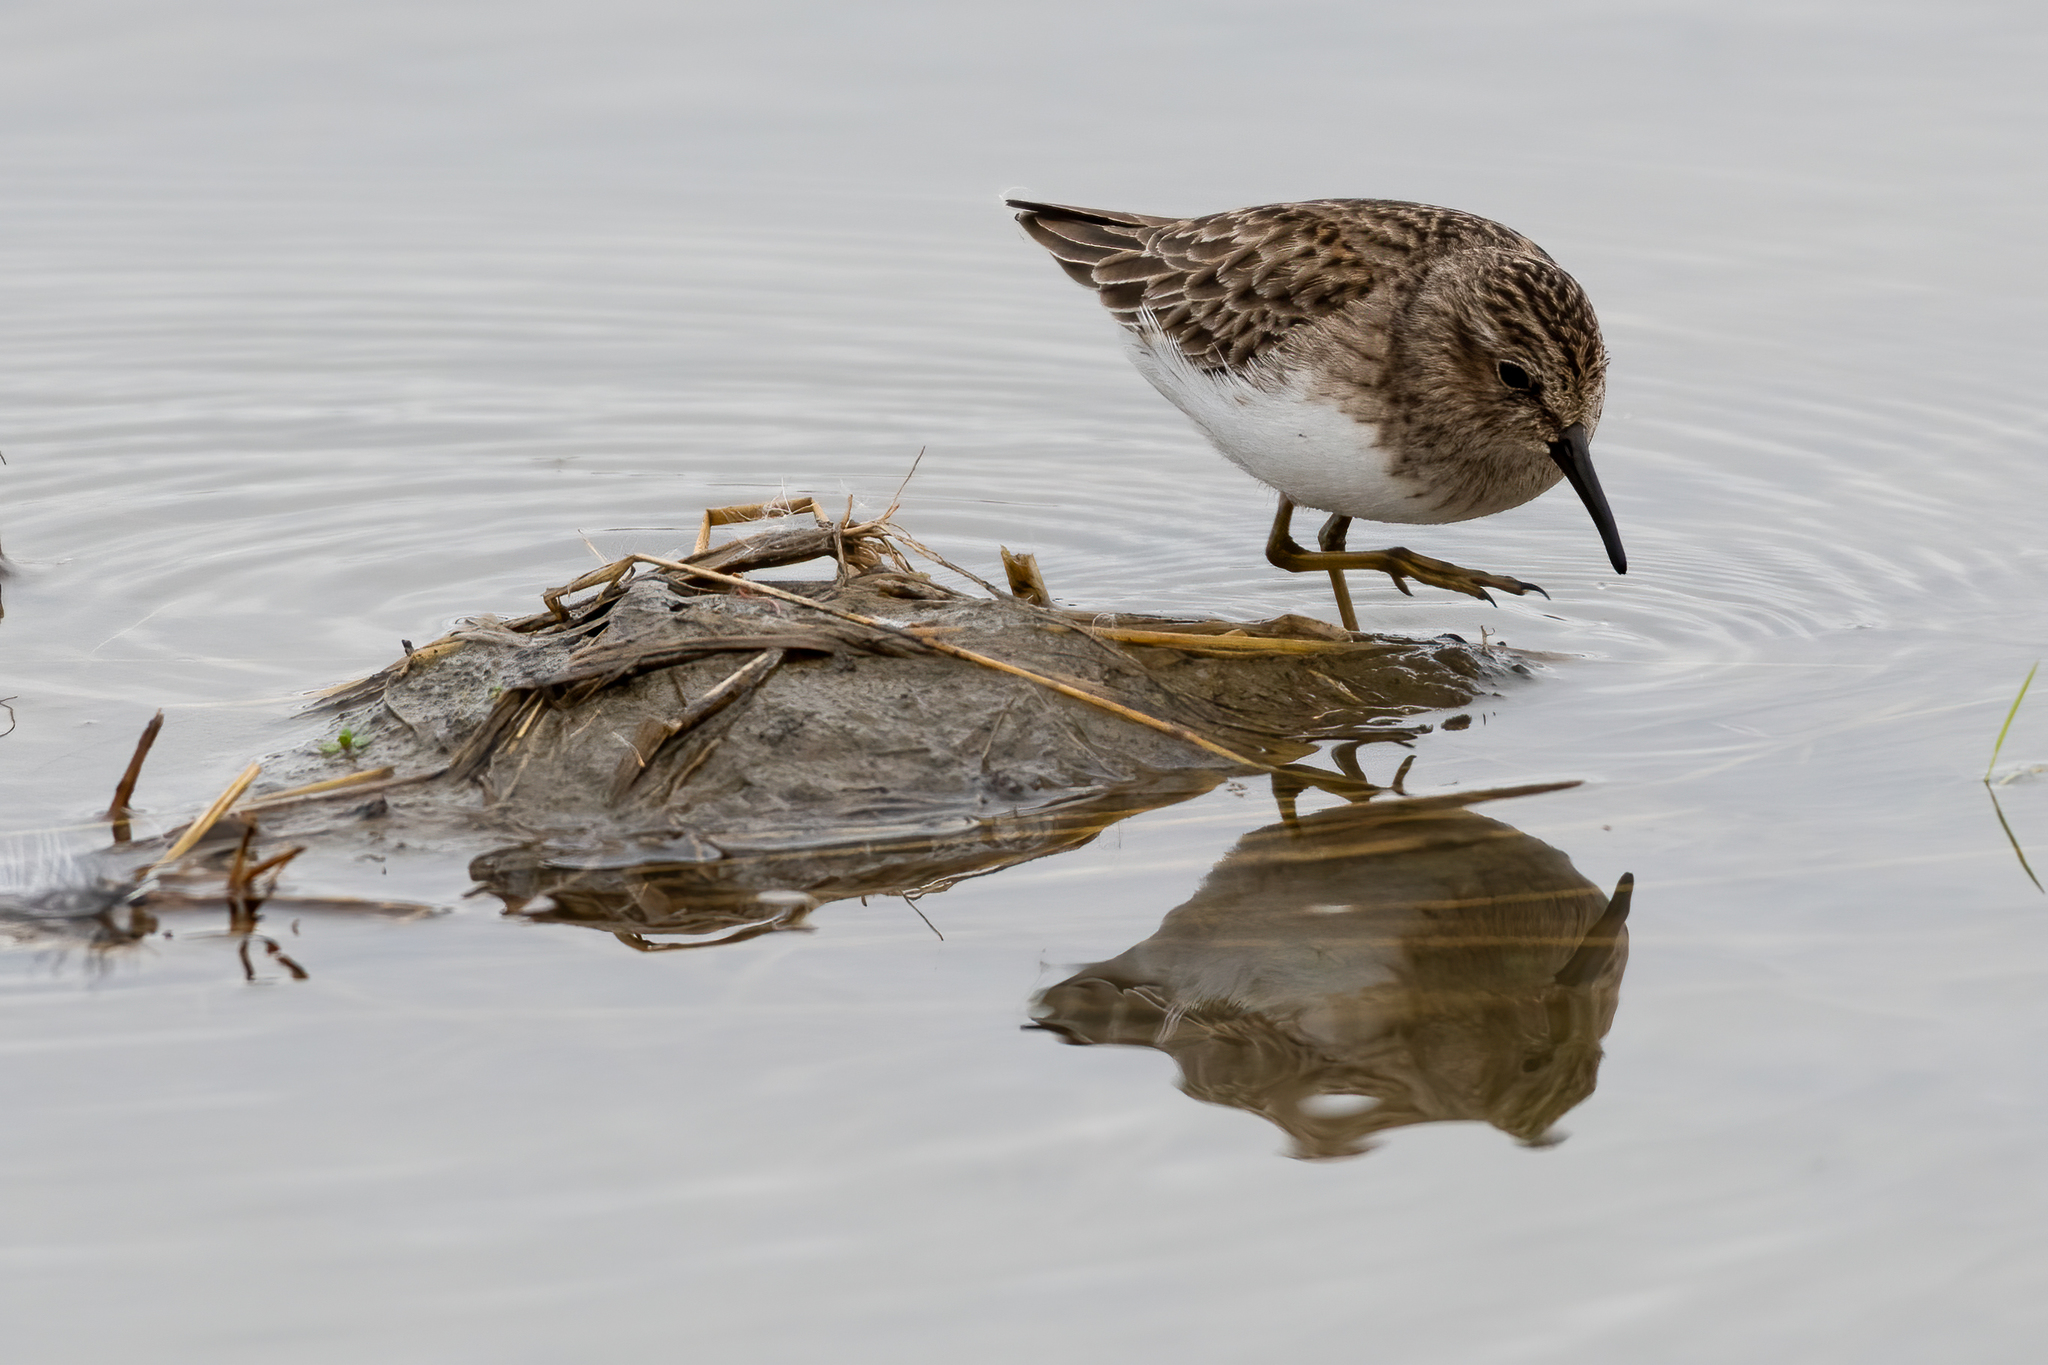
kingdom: Animalia
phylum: Chordata
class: Aves
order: Charadriiformes
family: Scolopacidae
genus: Calidris
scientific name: Calidris minutilla
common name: Least sandpiper
